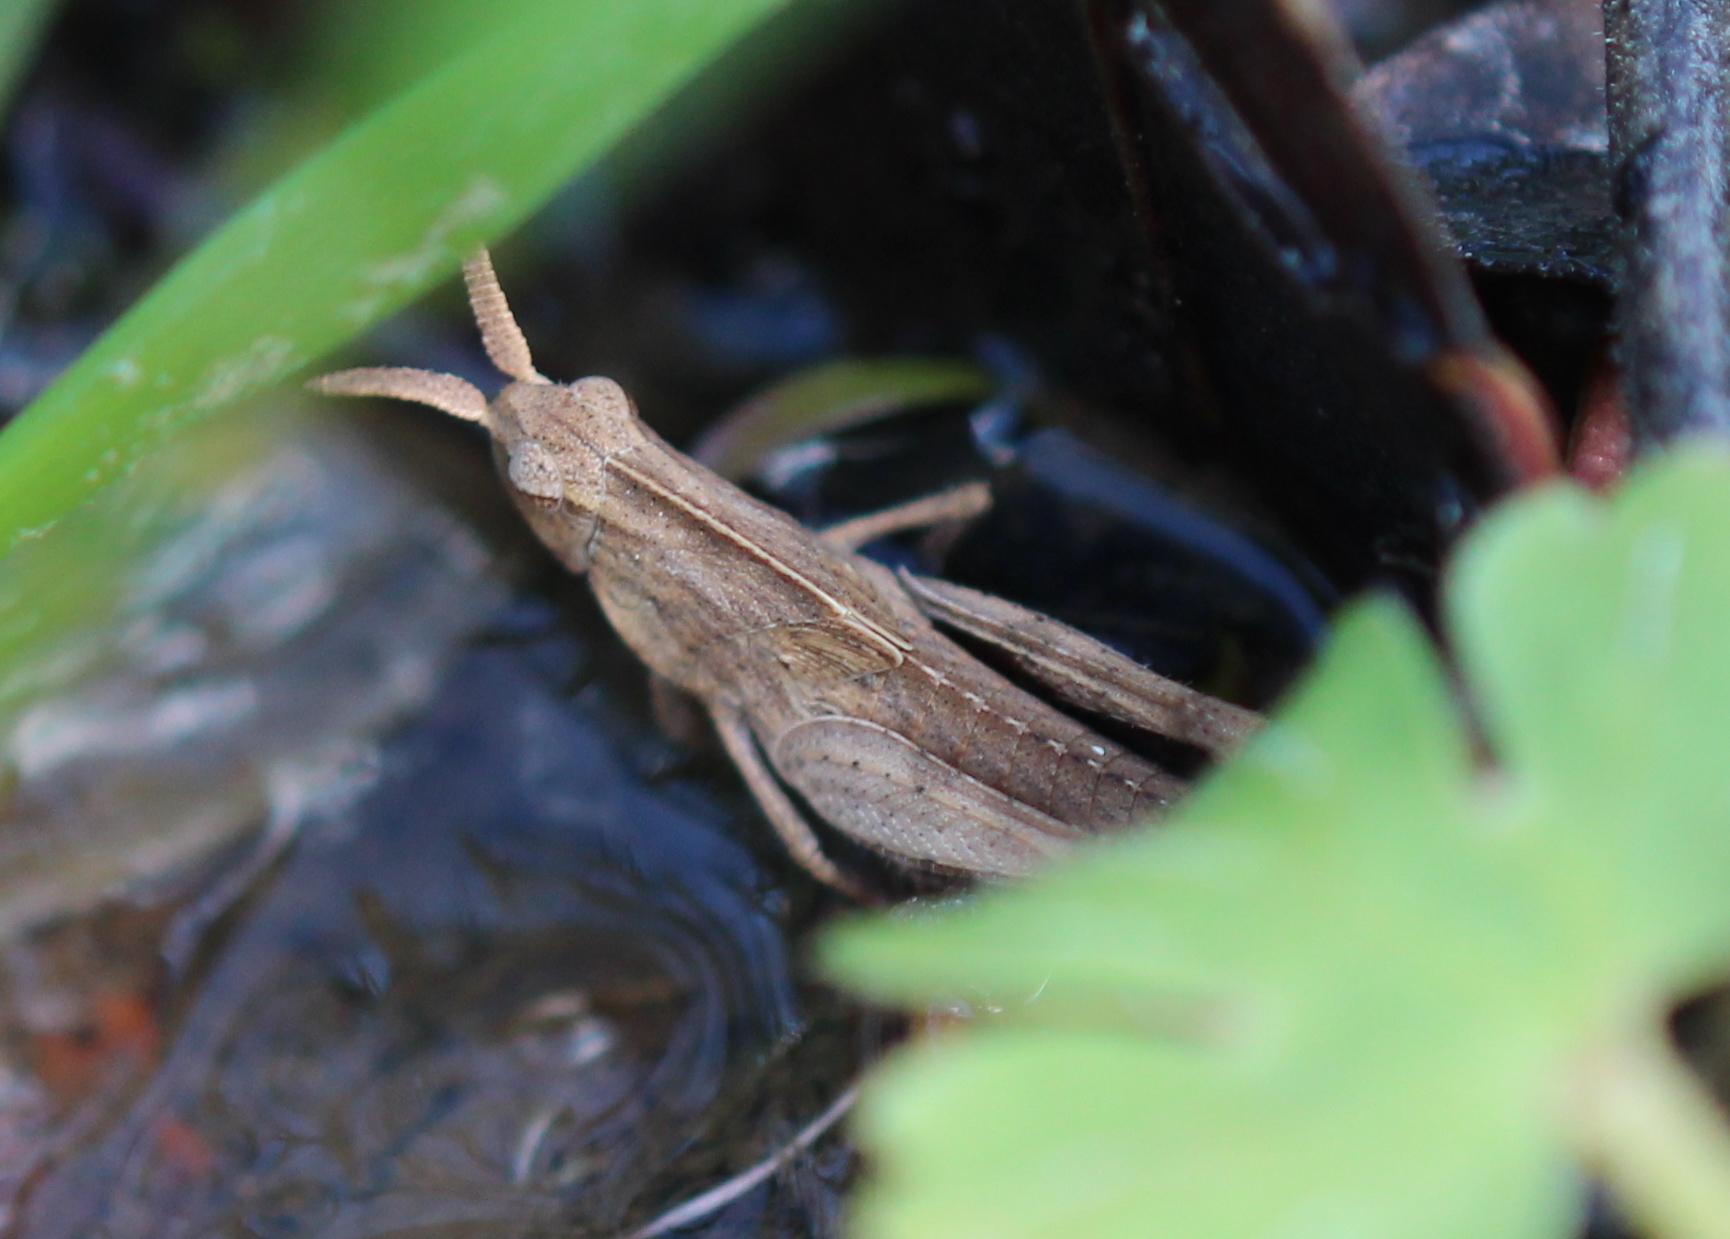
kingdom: Animalia
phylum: Arthropoda
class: Insecta
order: Orthoptera
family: Acrididae
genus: Chortophaga
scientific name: Chortophaga viridifasciata
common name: Green-striped grasshopper
